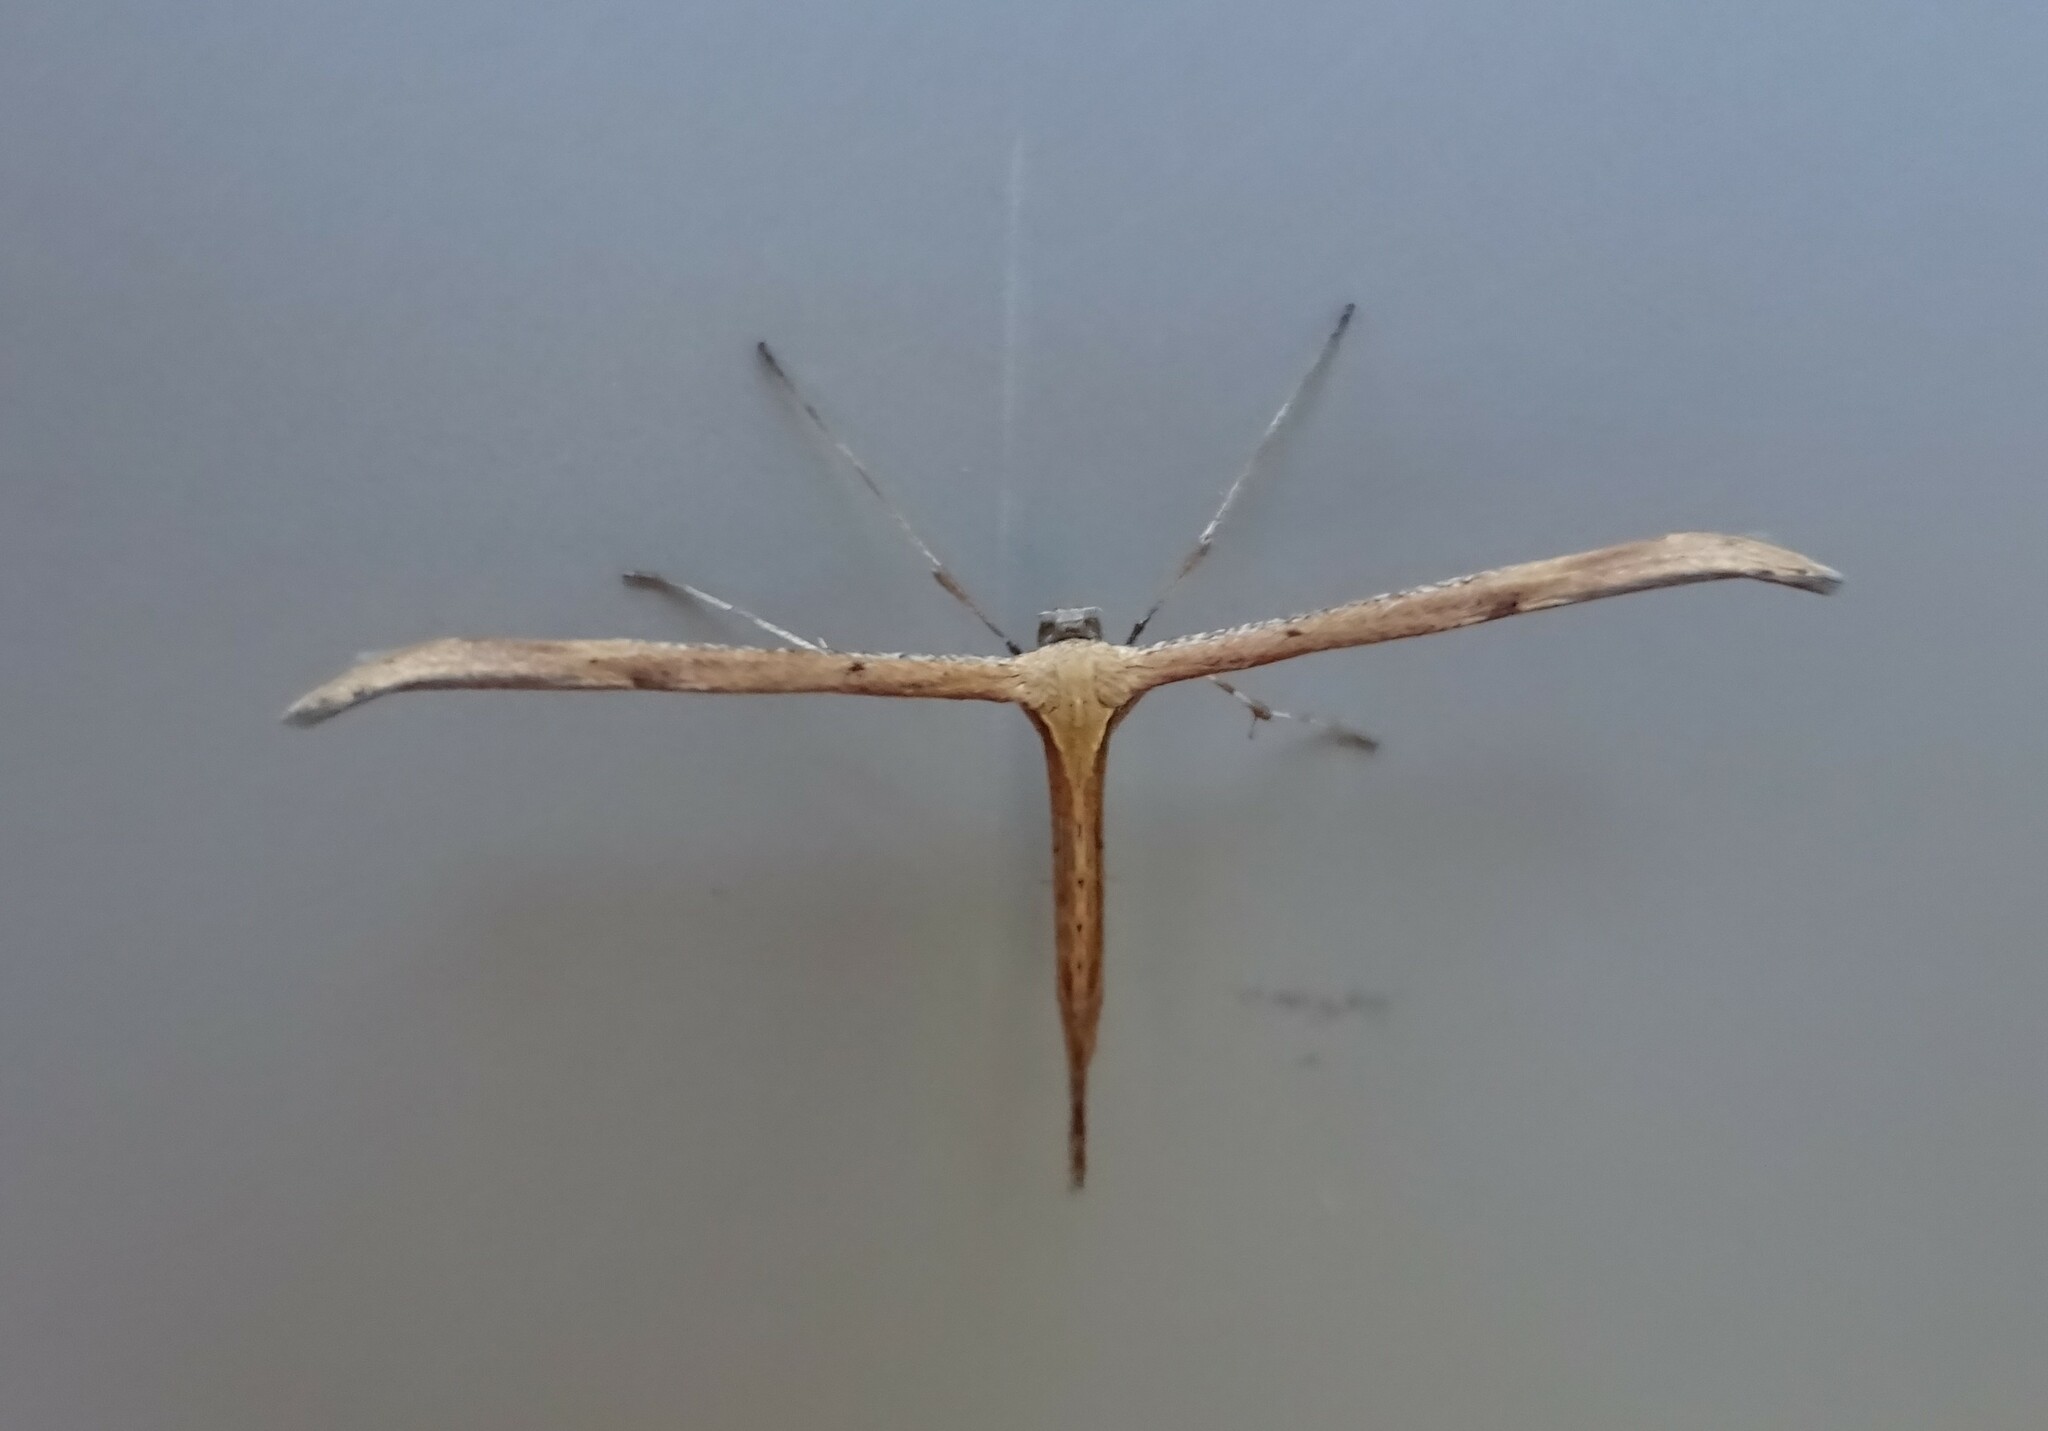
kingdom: Animalia
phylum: Arthropoda
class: Insecta
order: Lepidoptera
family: Pterophoridae
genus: Emmelina
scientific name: Emmelina monodactyla
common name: Common plume
